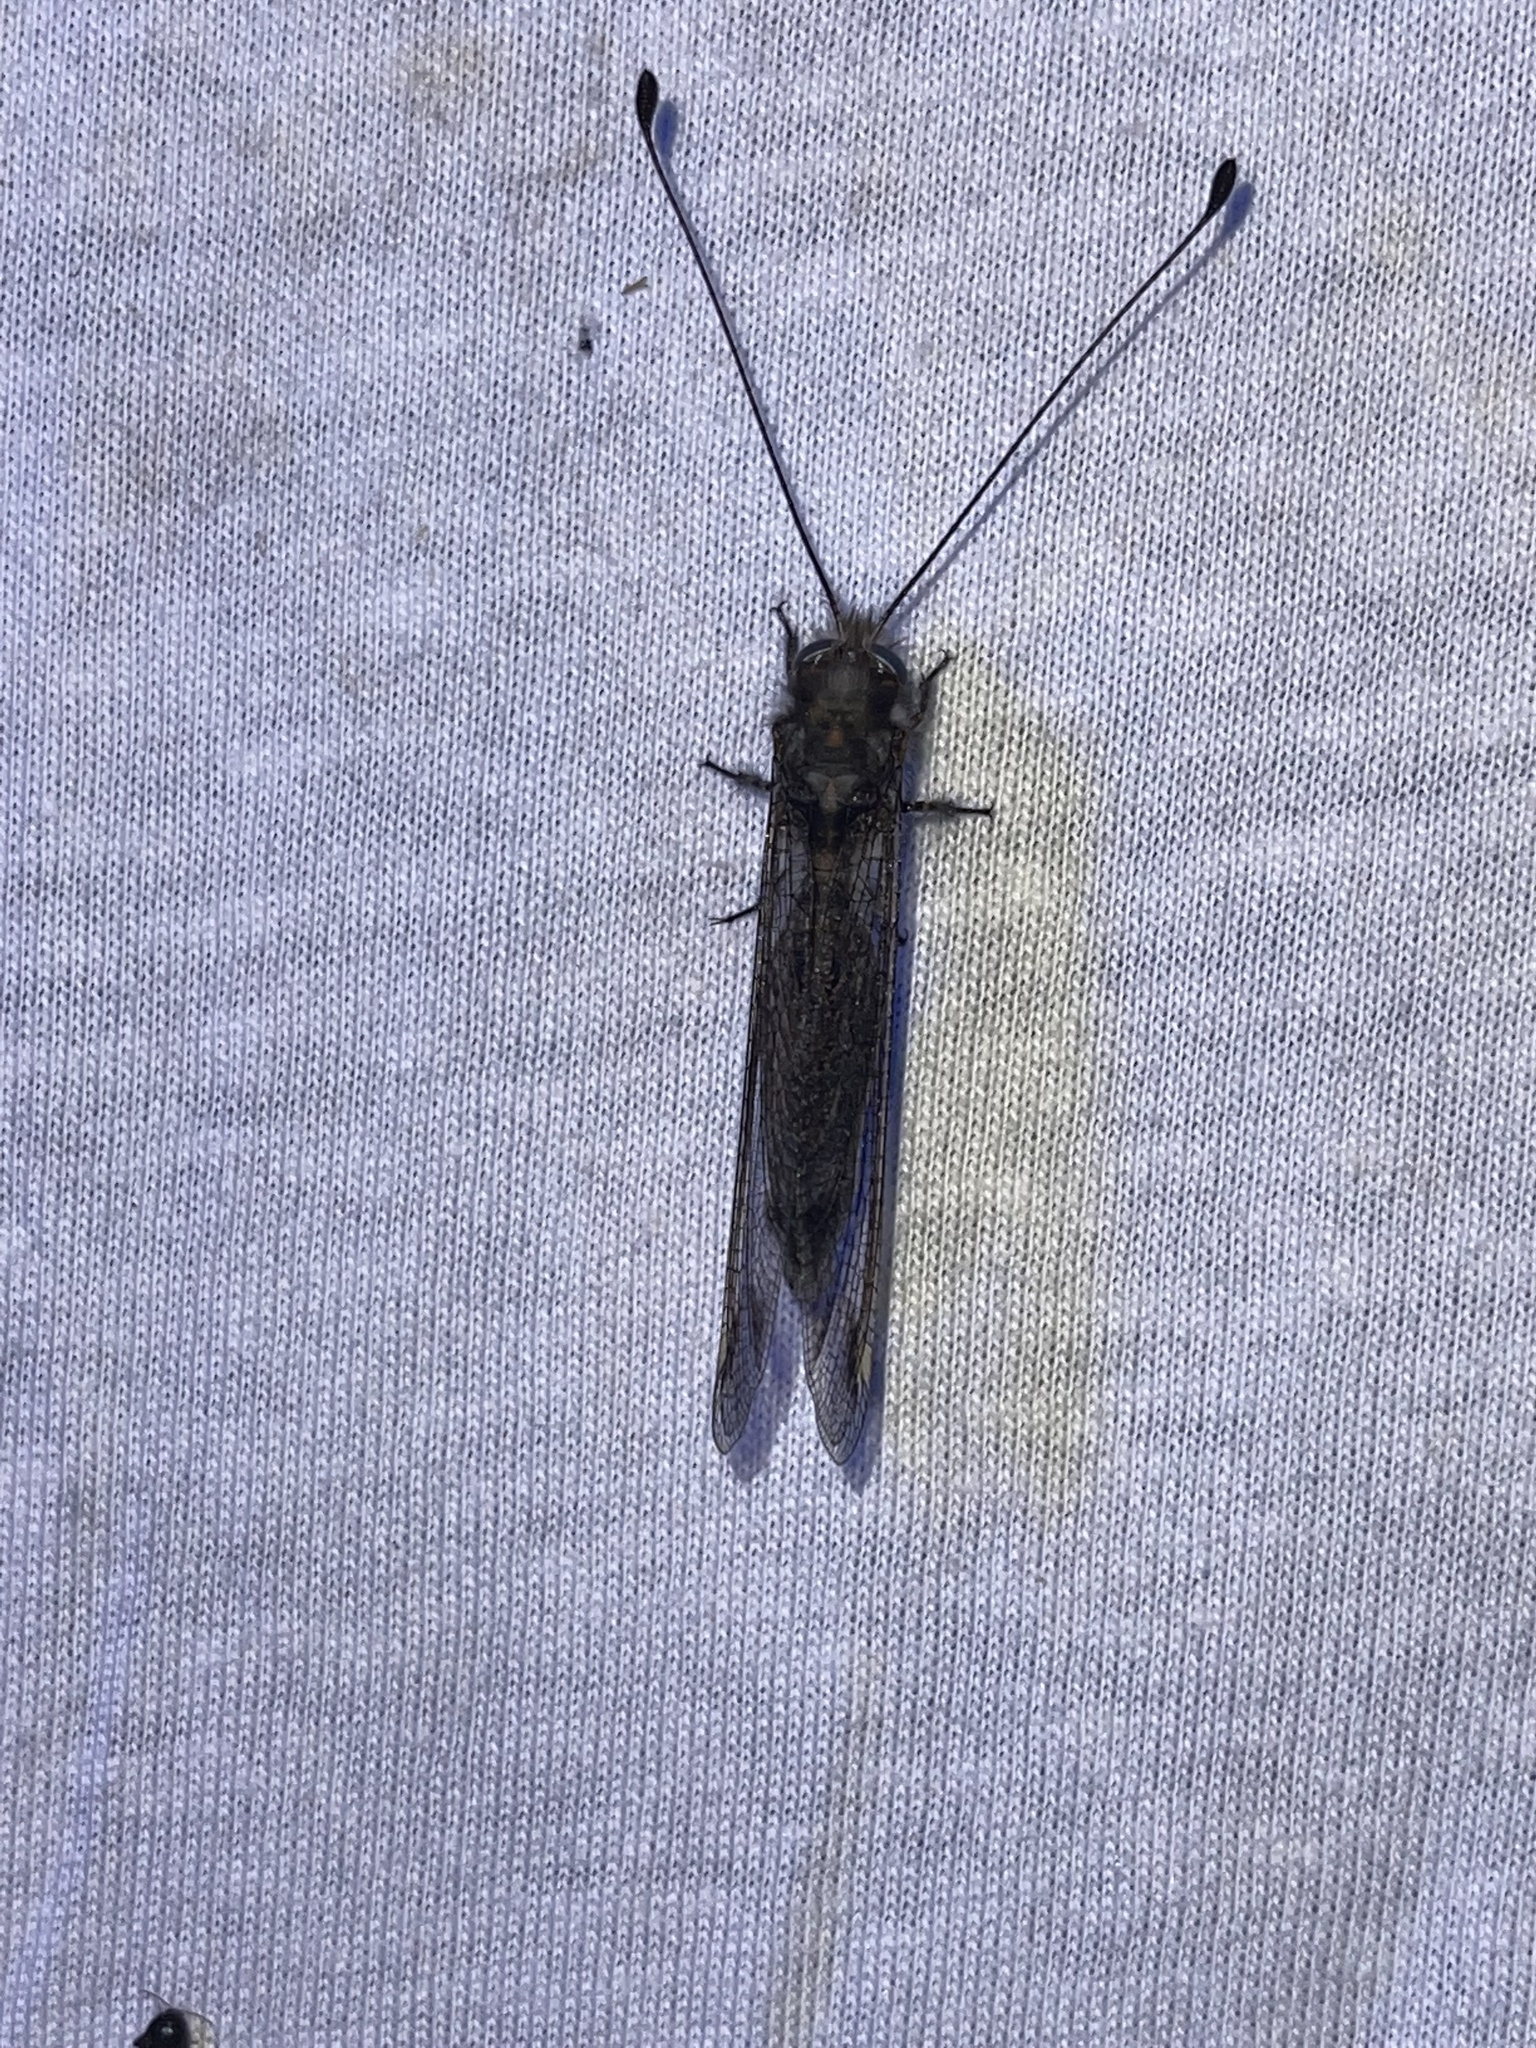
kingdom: Animalia
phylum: Arthropoda
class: Insecta
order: Neuroptera
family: Ascalaphidae
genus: Ululodes
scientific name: Ululodes quadripunctatus
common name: Four-spotted owlfly
